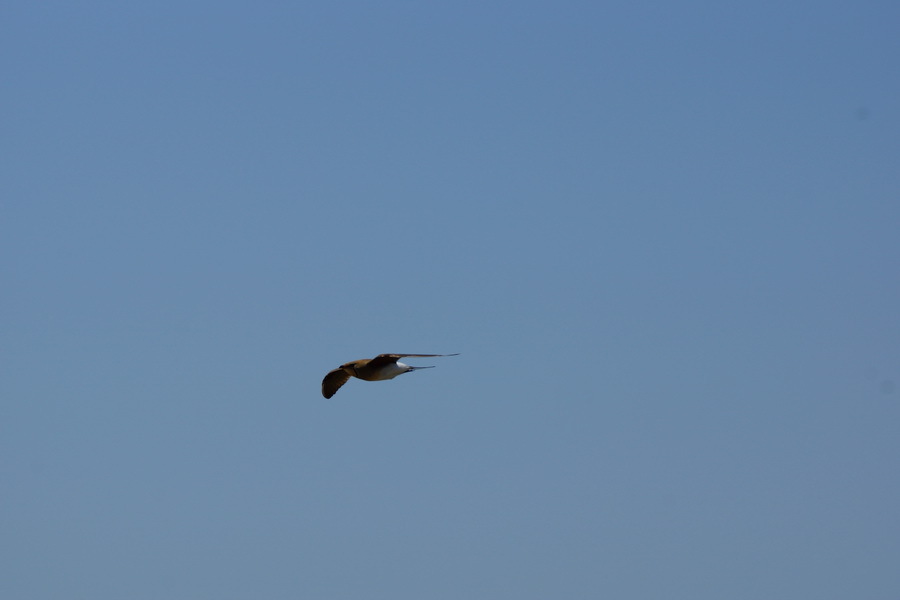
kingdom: Animalia
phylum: Chordata
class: Aves
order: Charadriiformes
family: Glareolidae
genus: Glareola
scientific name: Glareola pratincola
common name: Collared pratincole
